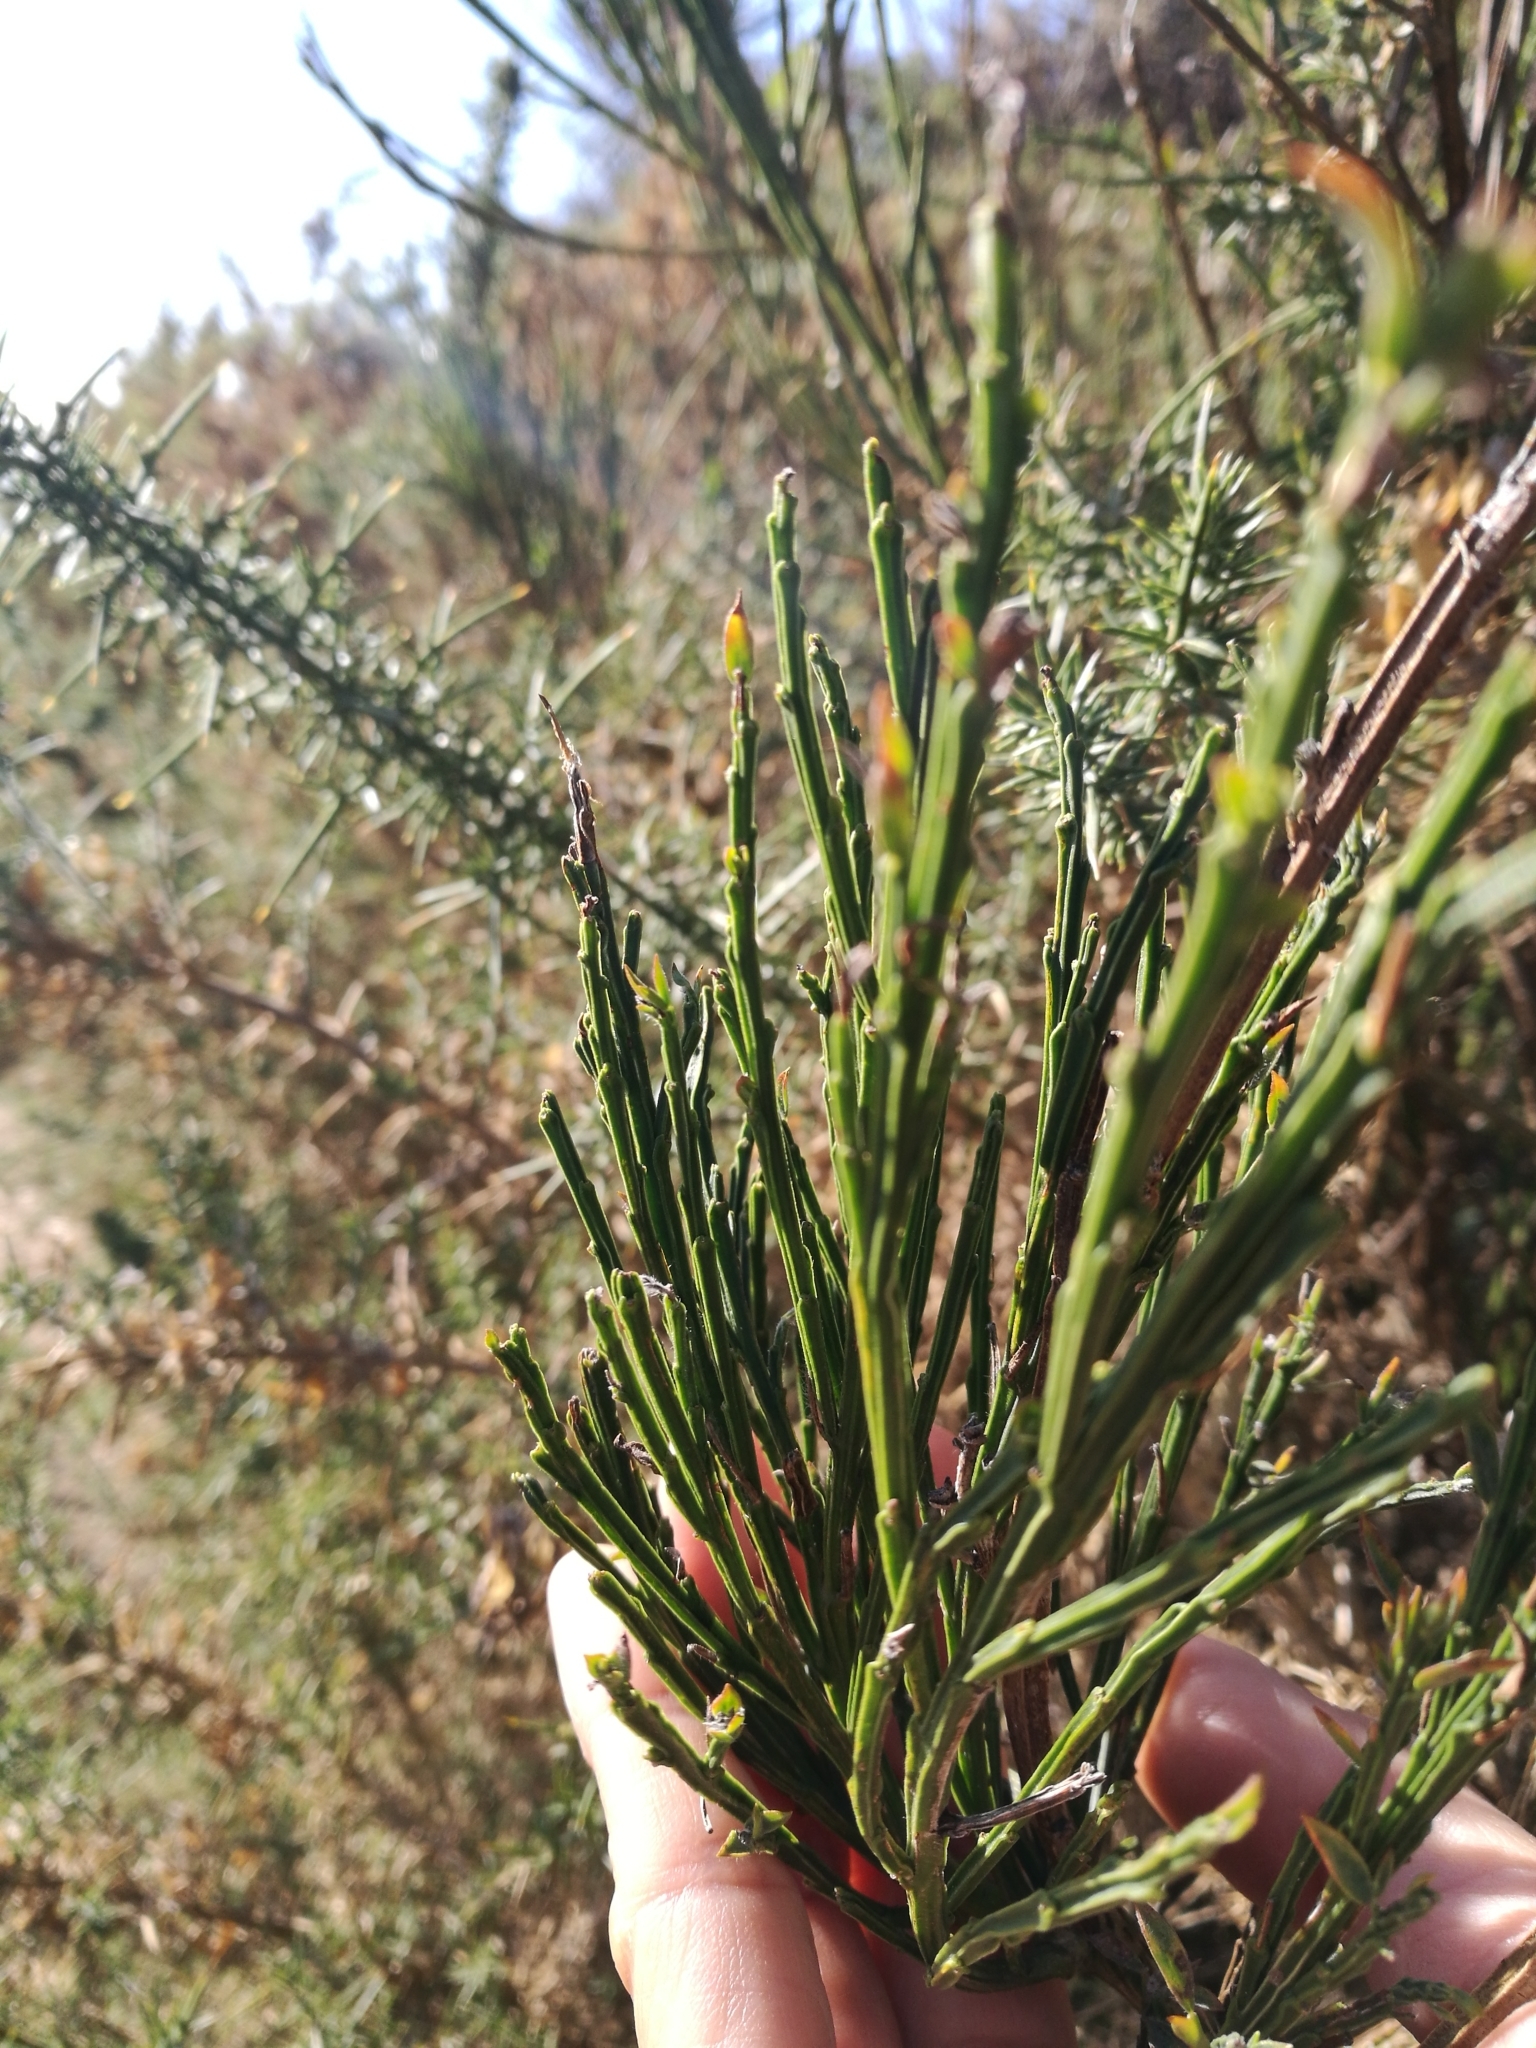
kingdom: Plantae
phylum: Tracheophyta
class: Magnoliopsida
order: Fabales
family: Fabaceae
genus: Cytisus
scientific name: Cytisus scoparius
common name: Scotch broom
